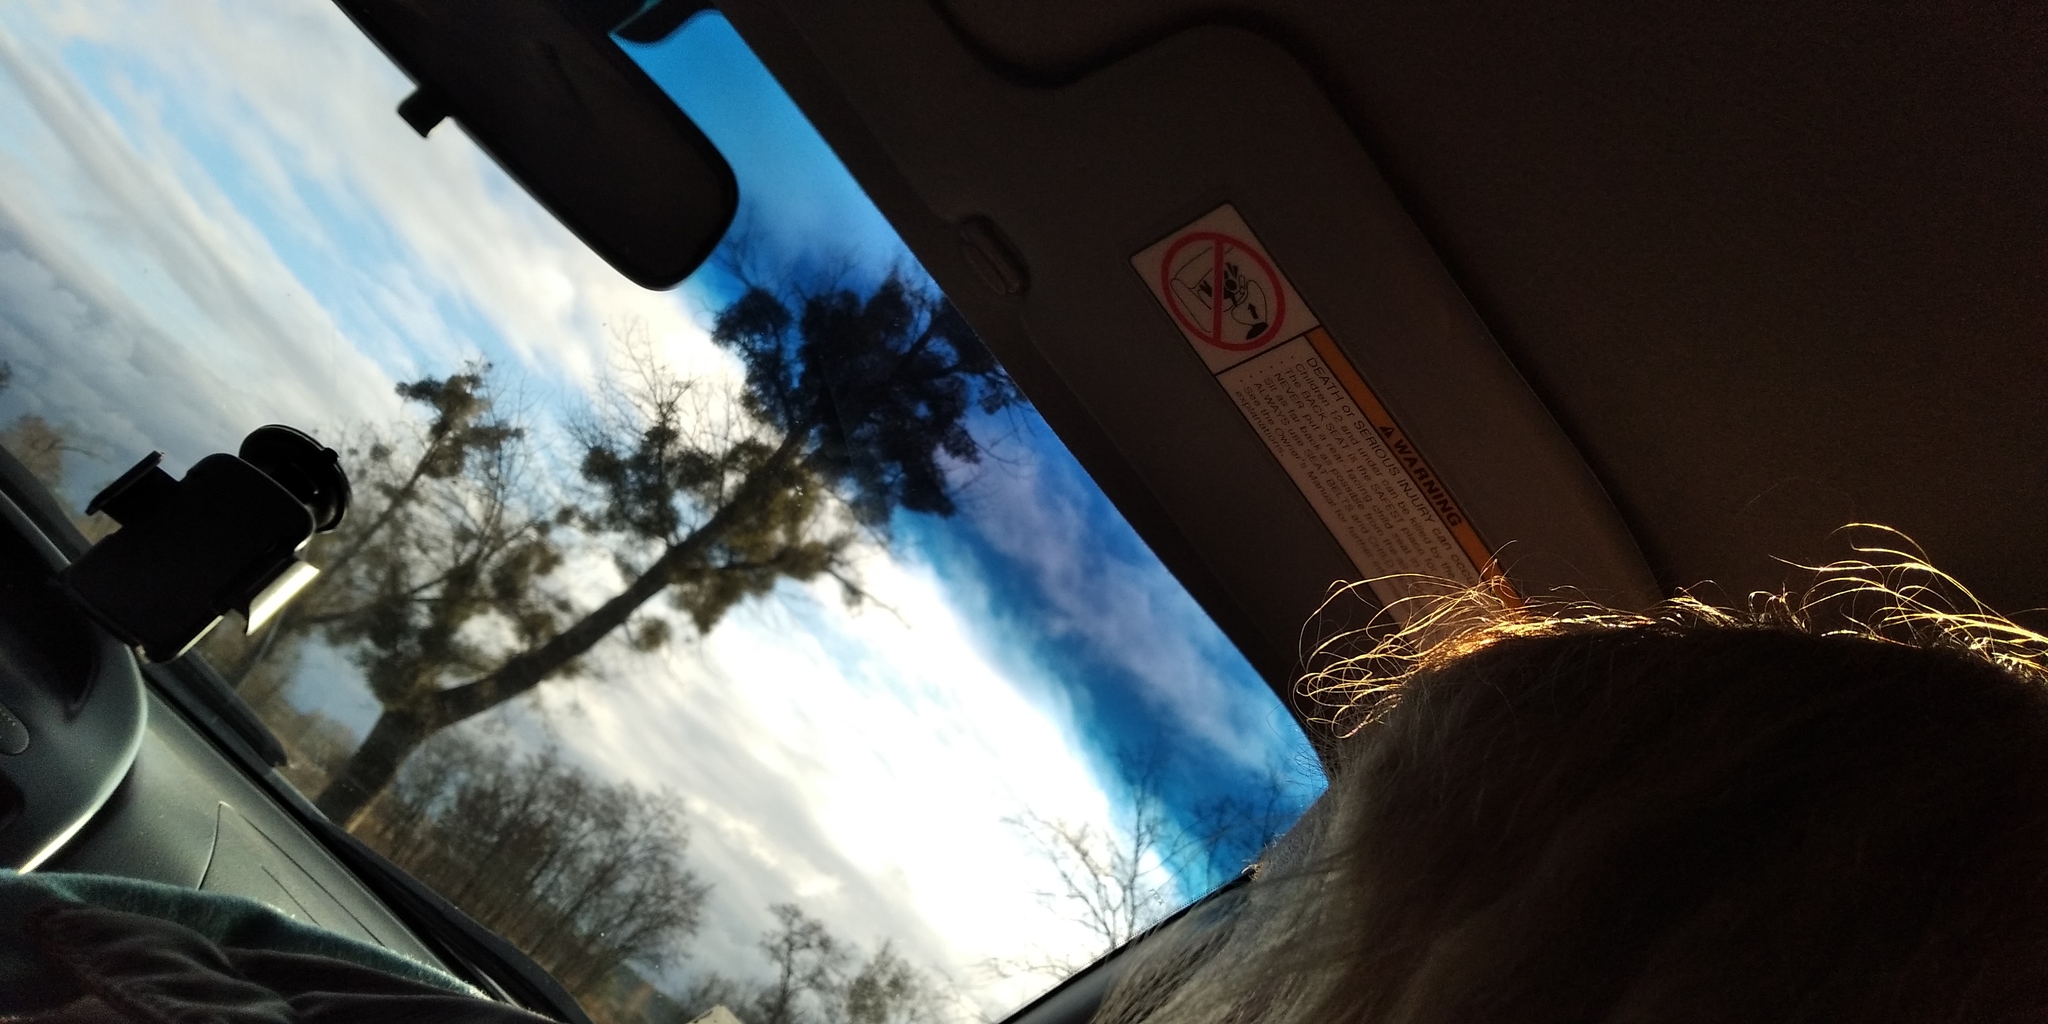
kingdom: Plantae
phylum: Tracheophyta
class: Magnoliopsida
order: Santalales
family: Viscaceae
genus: Viscum
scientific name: Viscum album
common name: Mistletoe
